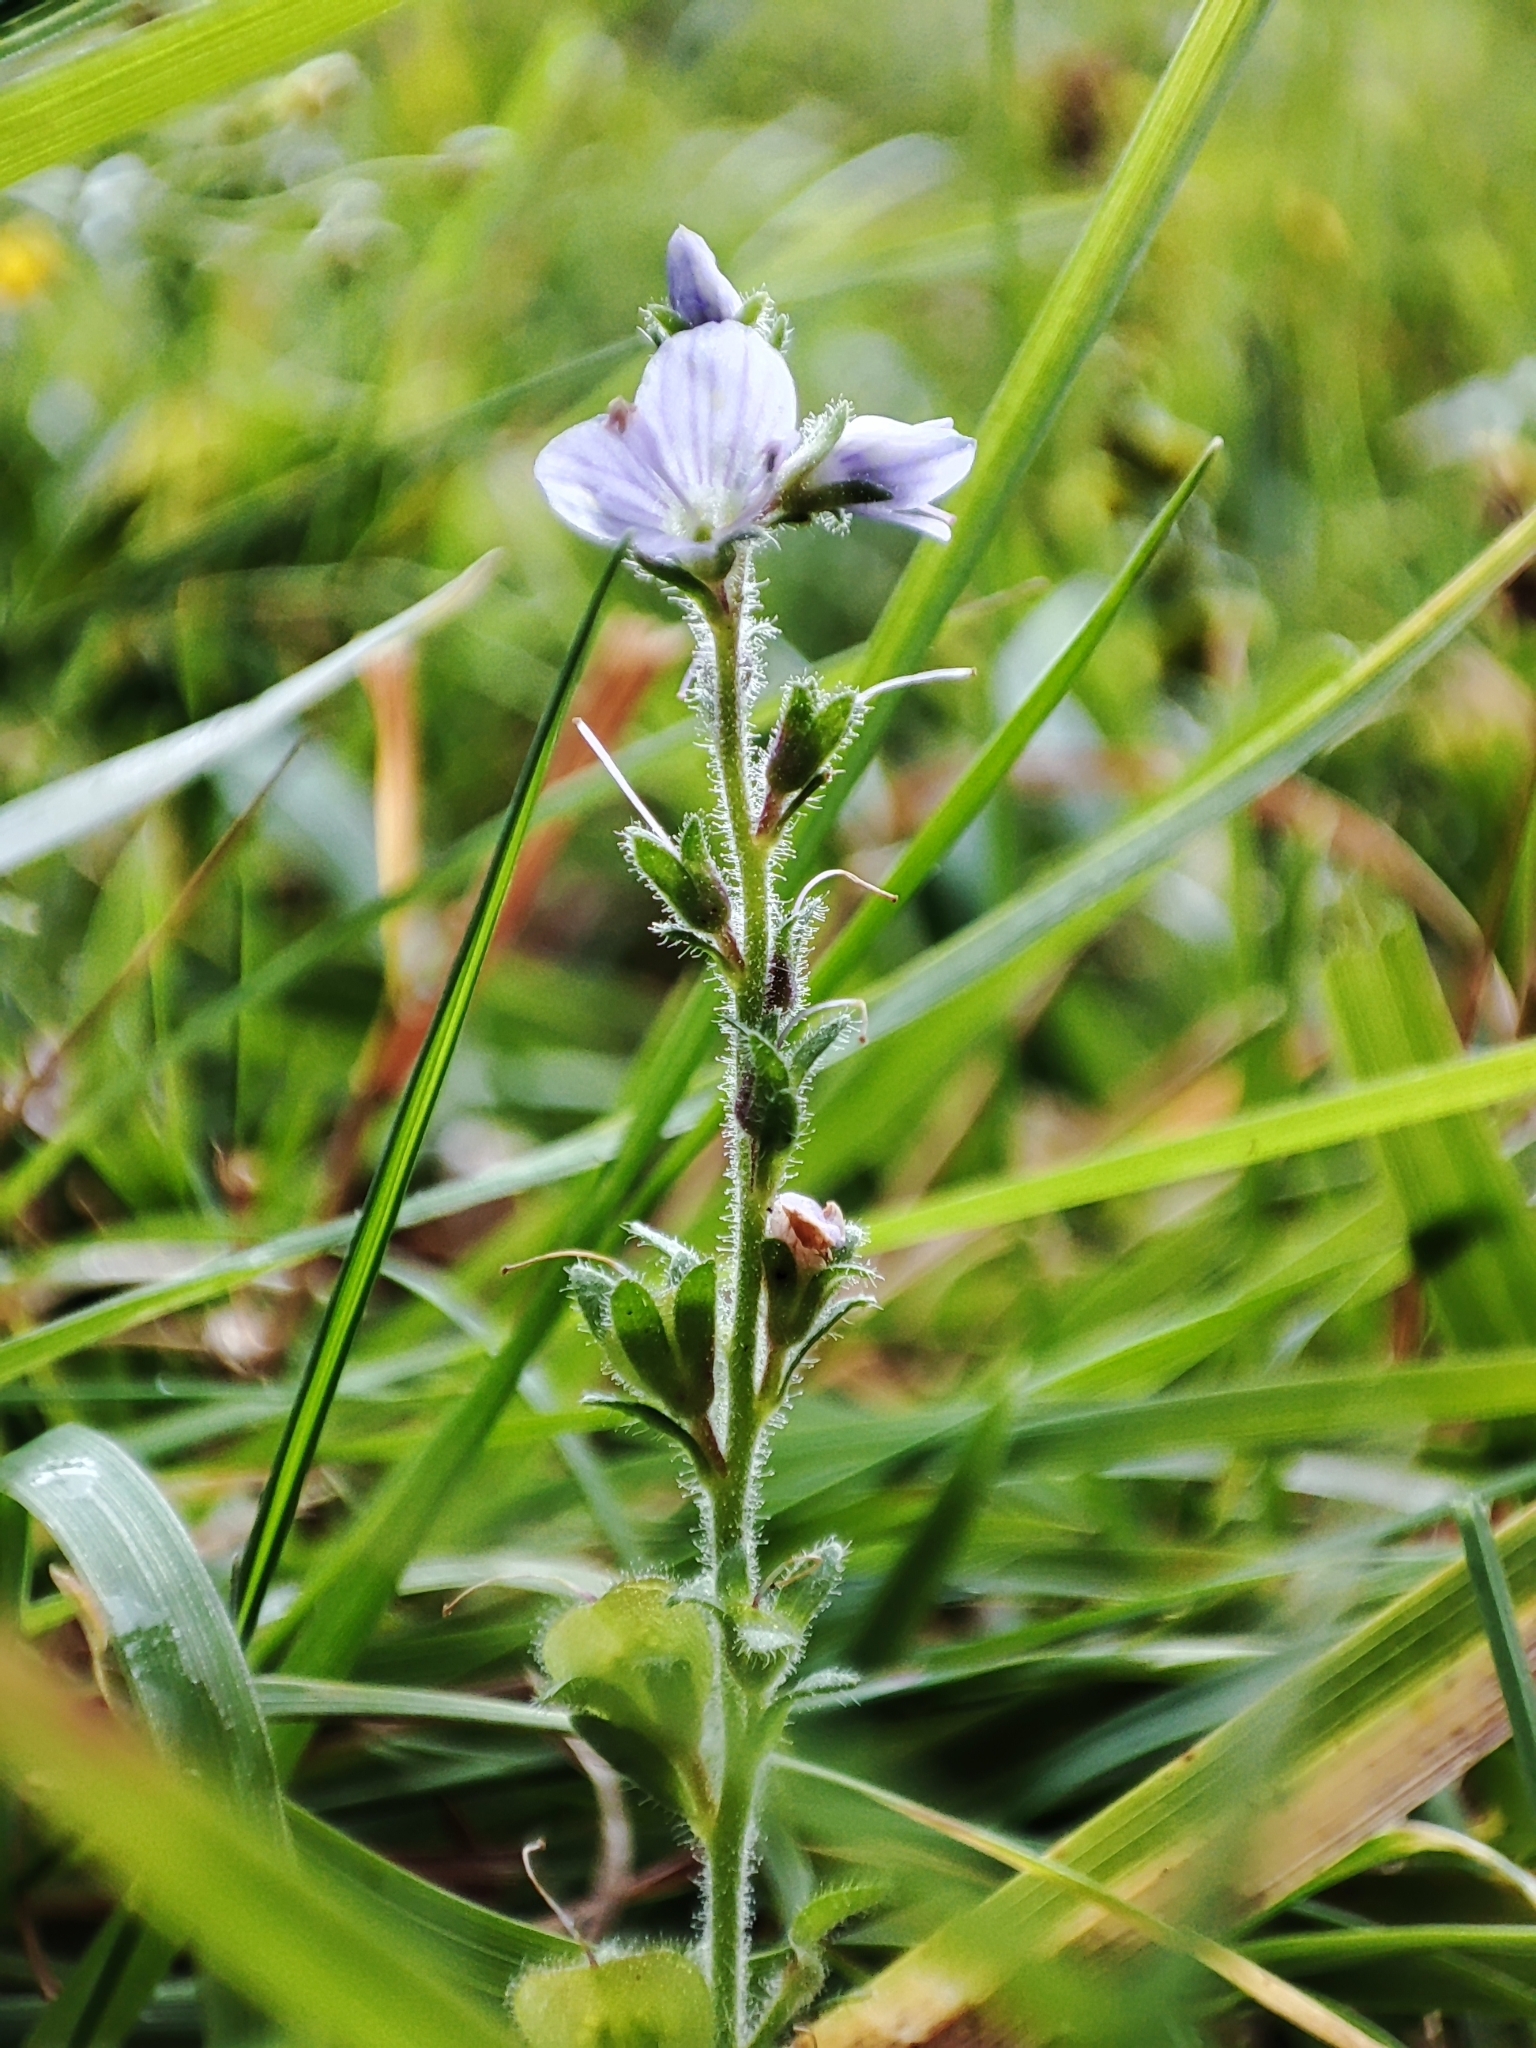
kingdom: Plantae
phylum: Tracheophyta
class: Magnoliopsida
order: Lamiales
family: Plantaginaceae
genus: Veronica
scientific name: Veronica officinalis
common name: Common speedwell
